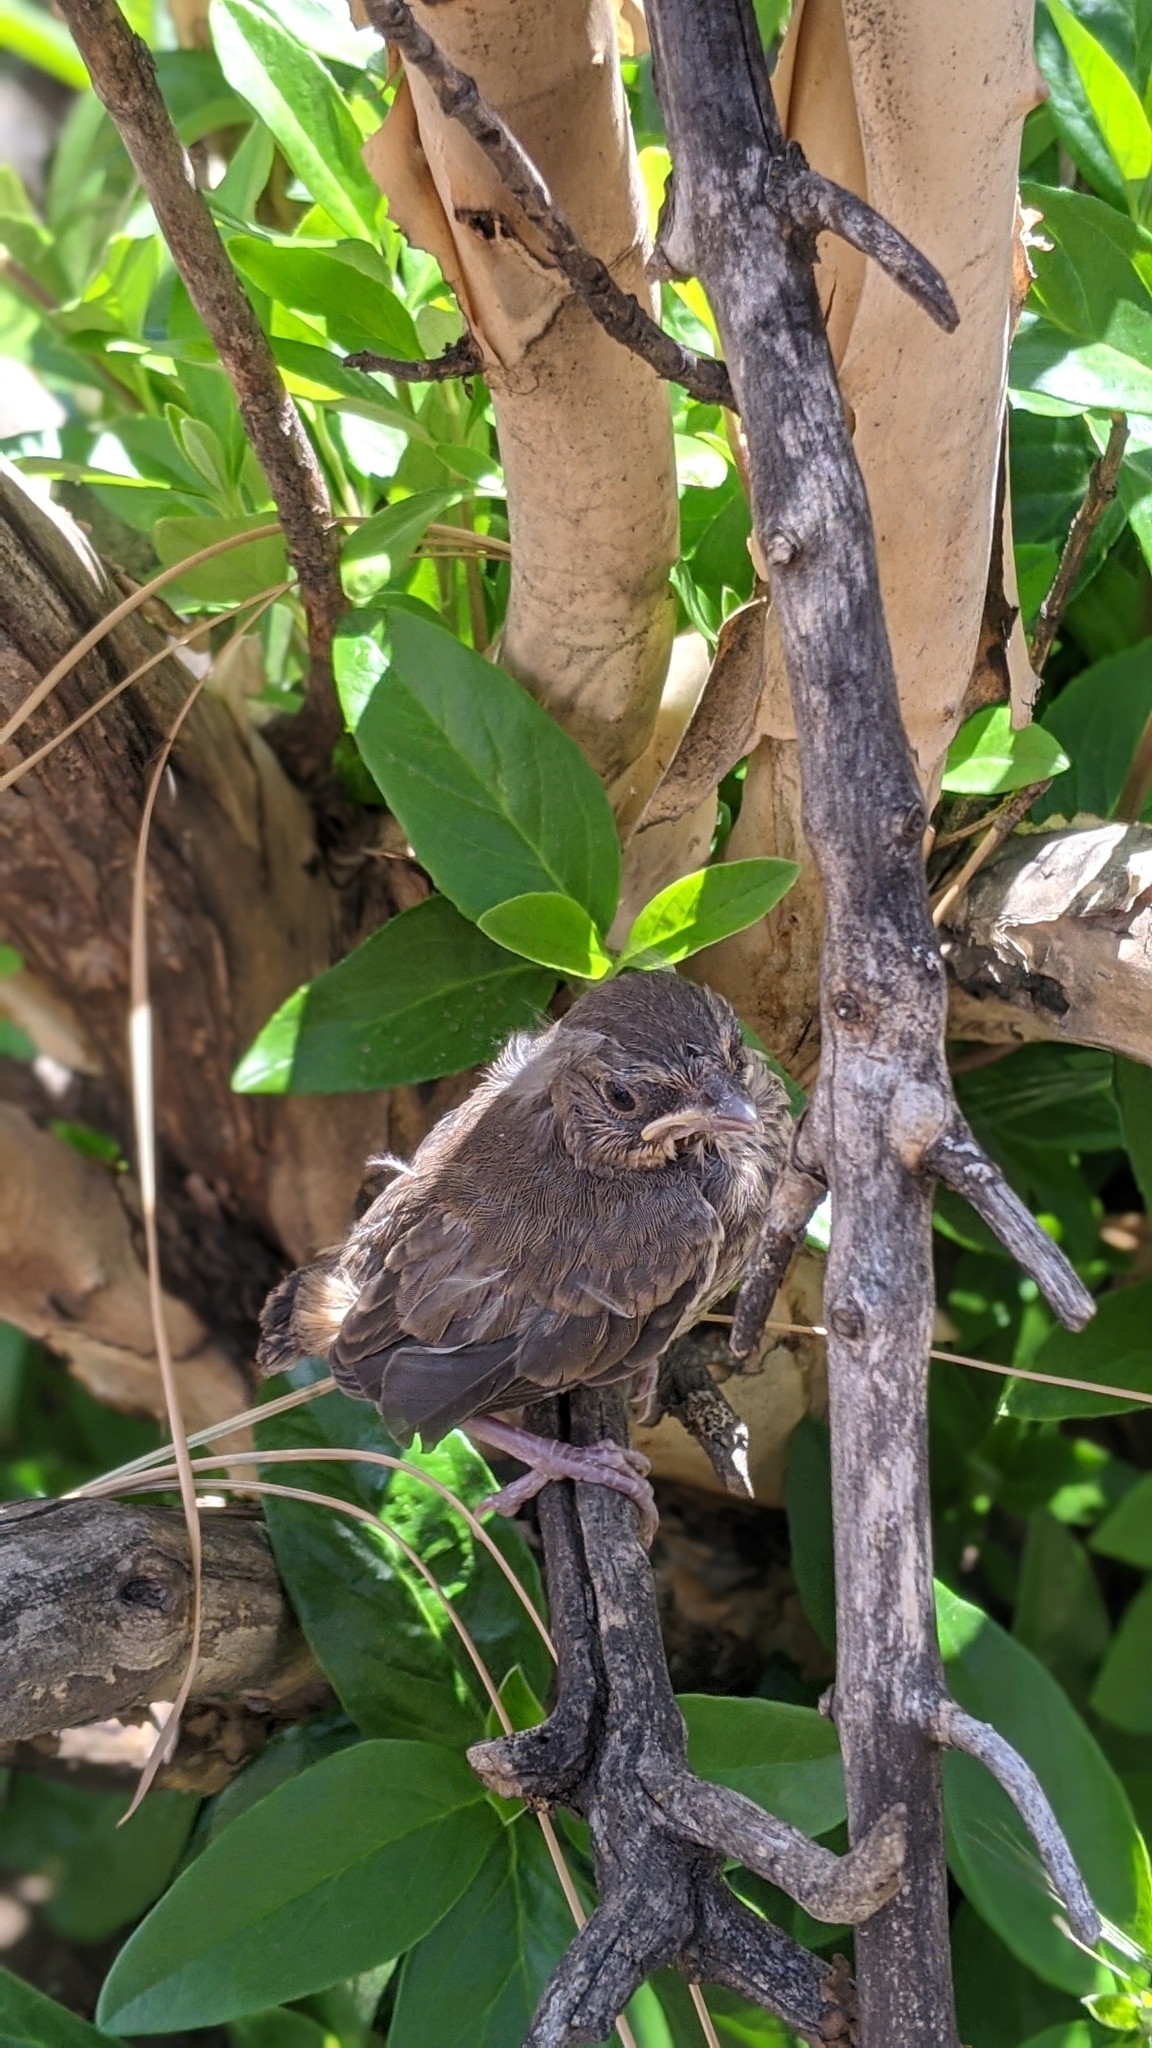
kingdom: Animalia
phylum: Chordata
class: Aves
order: Passeriformes
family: Passerellidae
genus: Melozone
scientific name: Melozone crissalis
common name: California towhee
